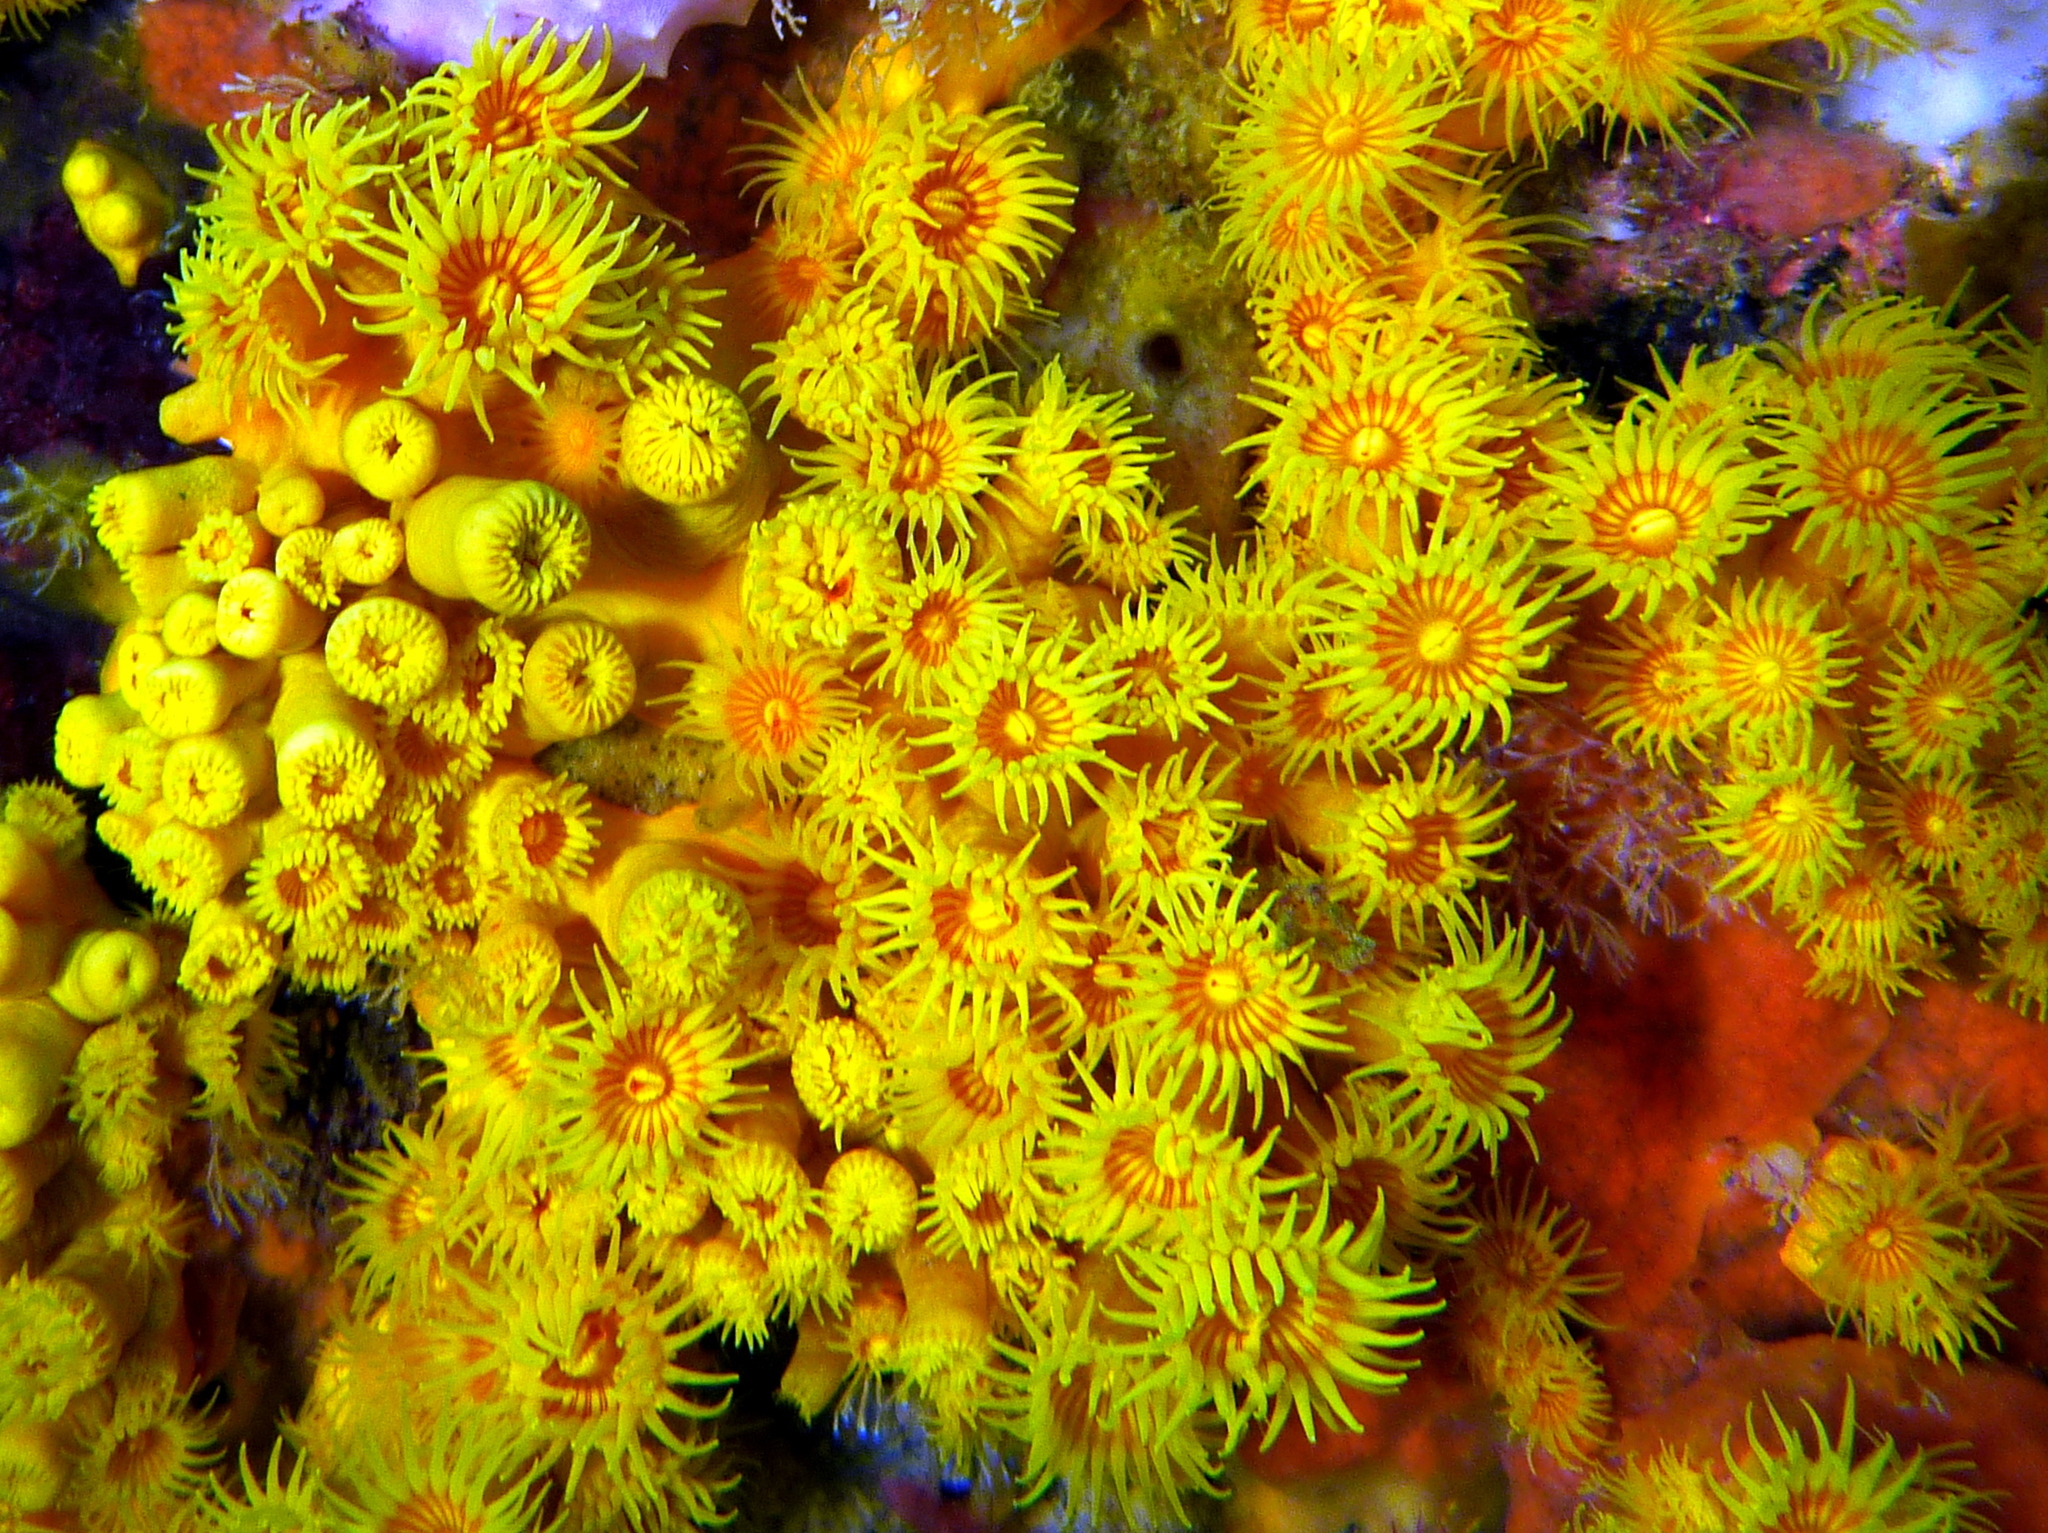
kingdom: Animalia
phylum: Cnidaria
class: Anthozoa
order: Zoantharia
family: Epizoanthidae
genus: Epizoanthus
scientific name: Epizoanthus karenae
